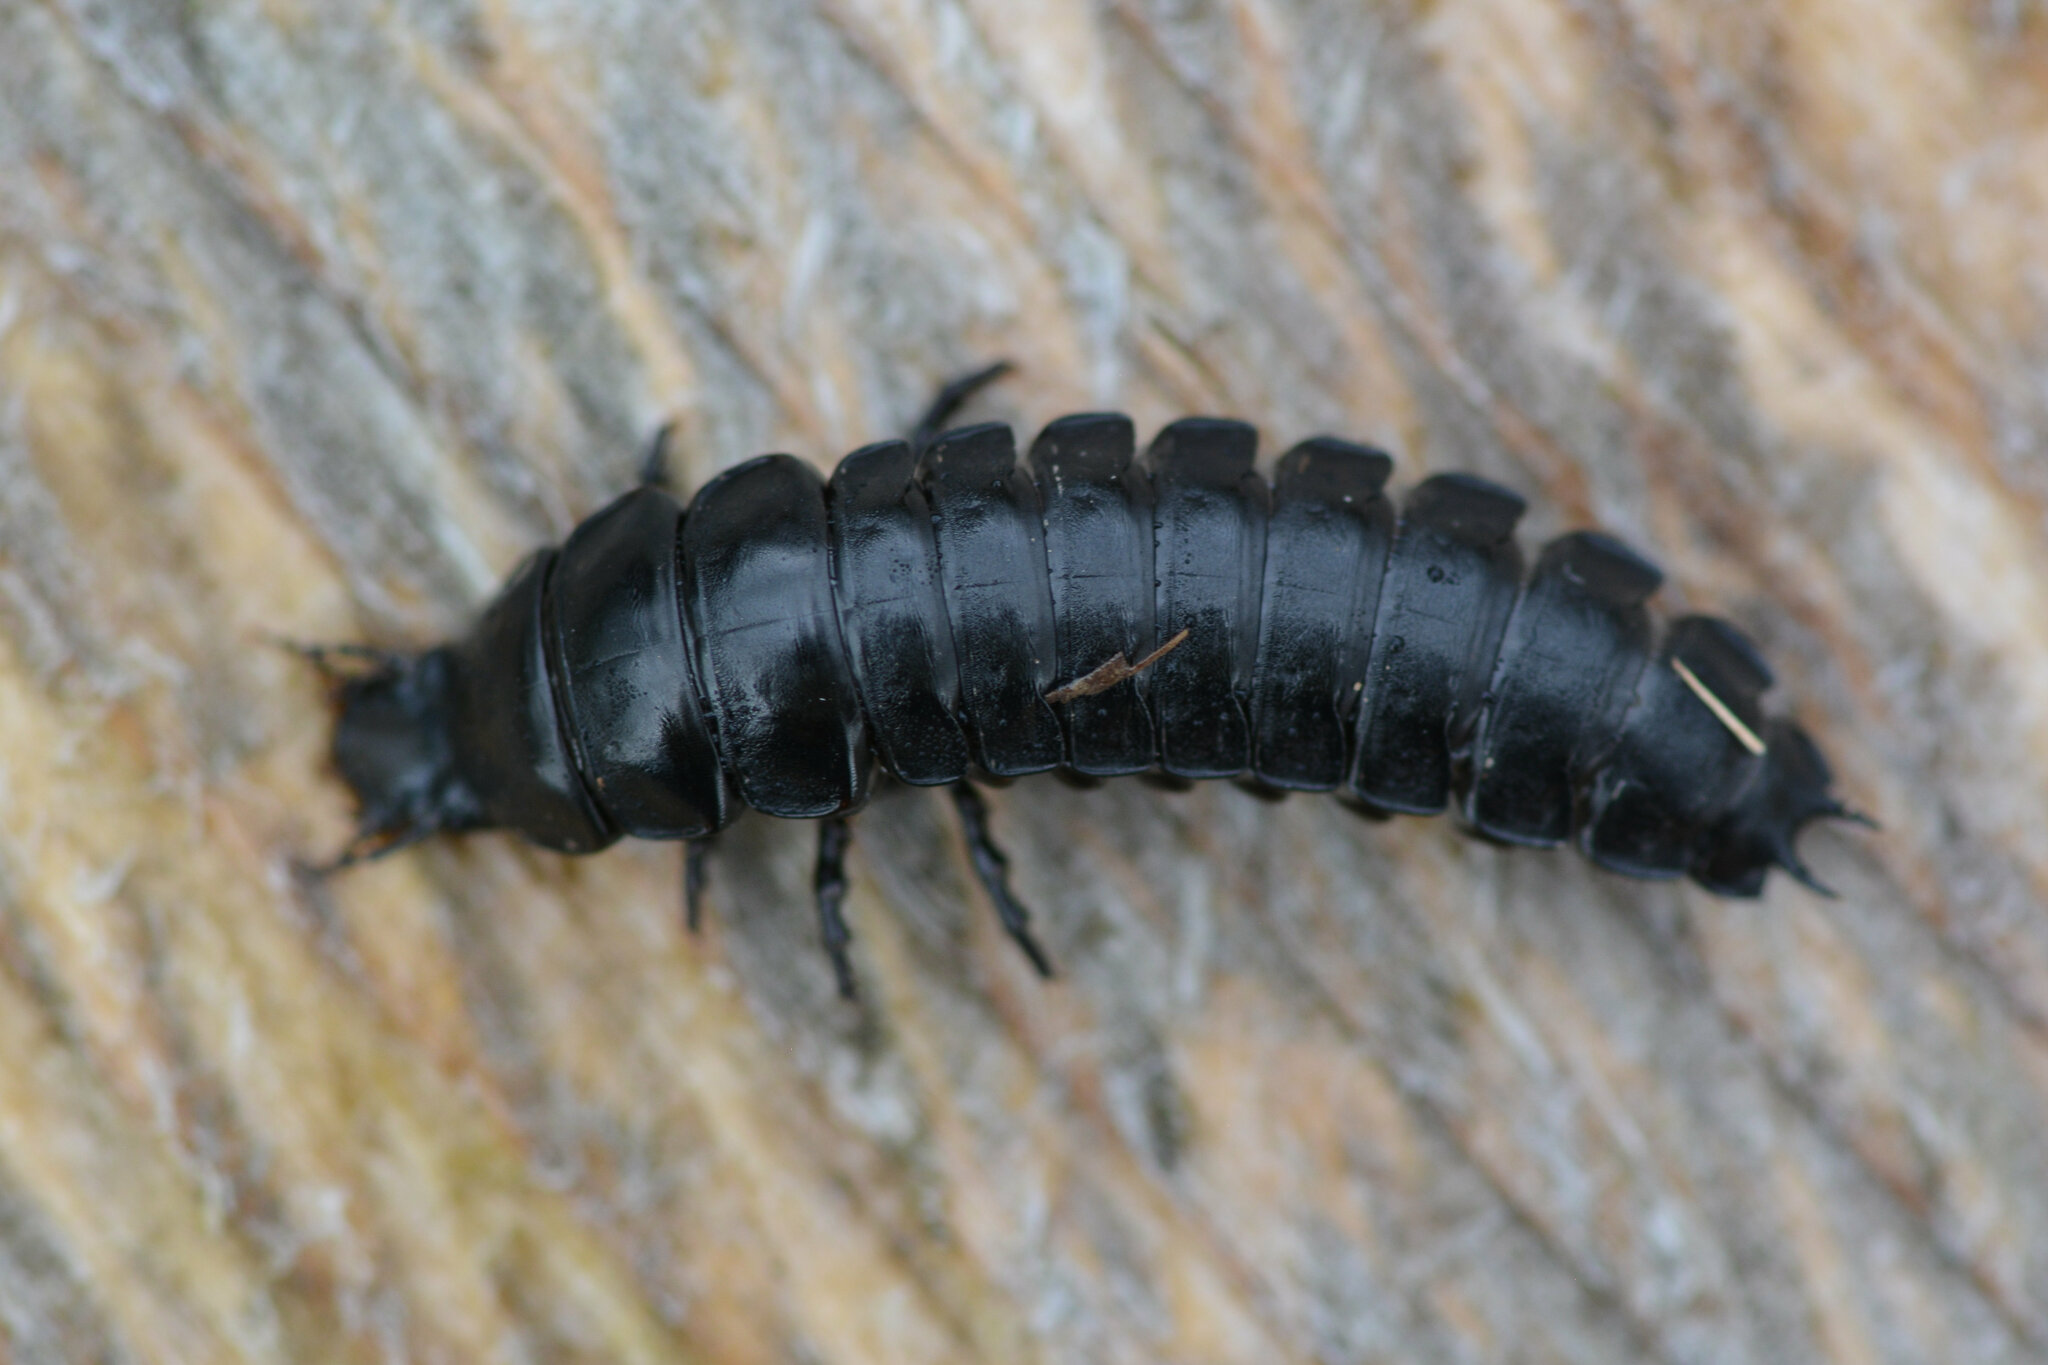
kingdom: Animalia
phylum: Arthropoda
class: Insecta
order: Coleoptera
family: Carabidae
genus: Carabus
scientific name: Carabus
